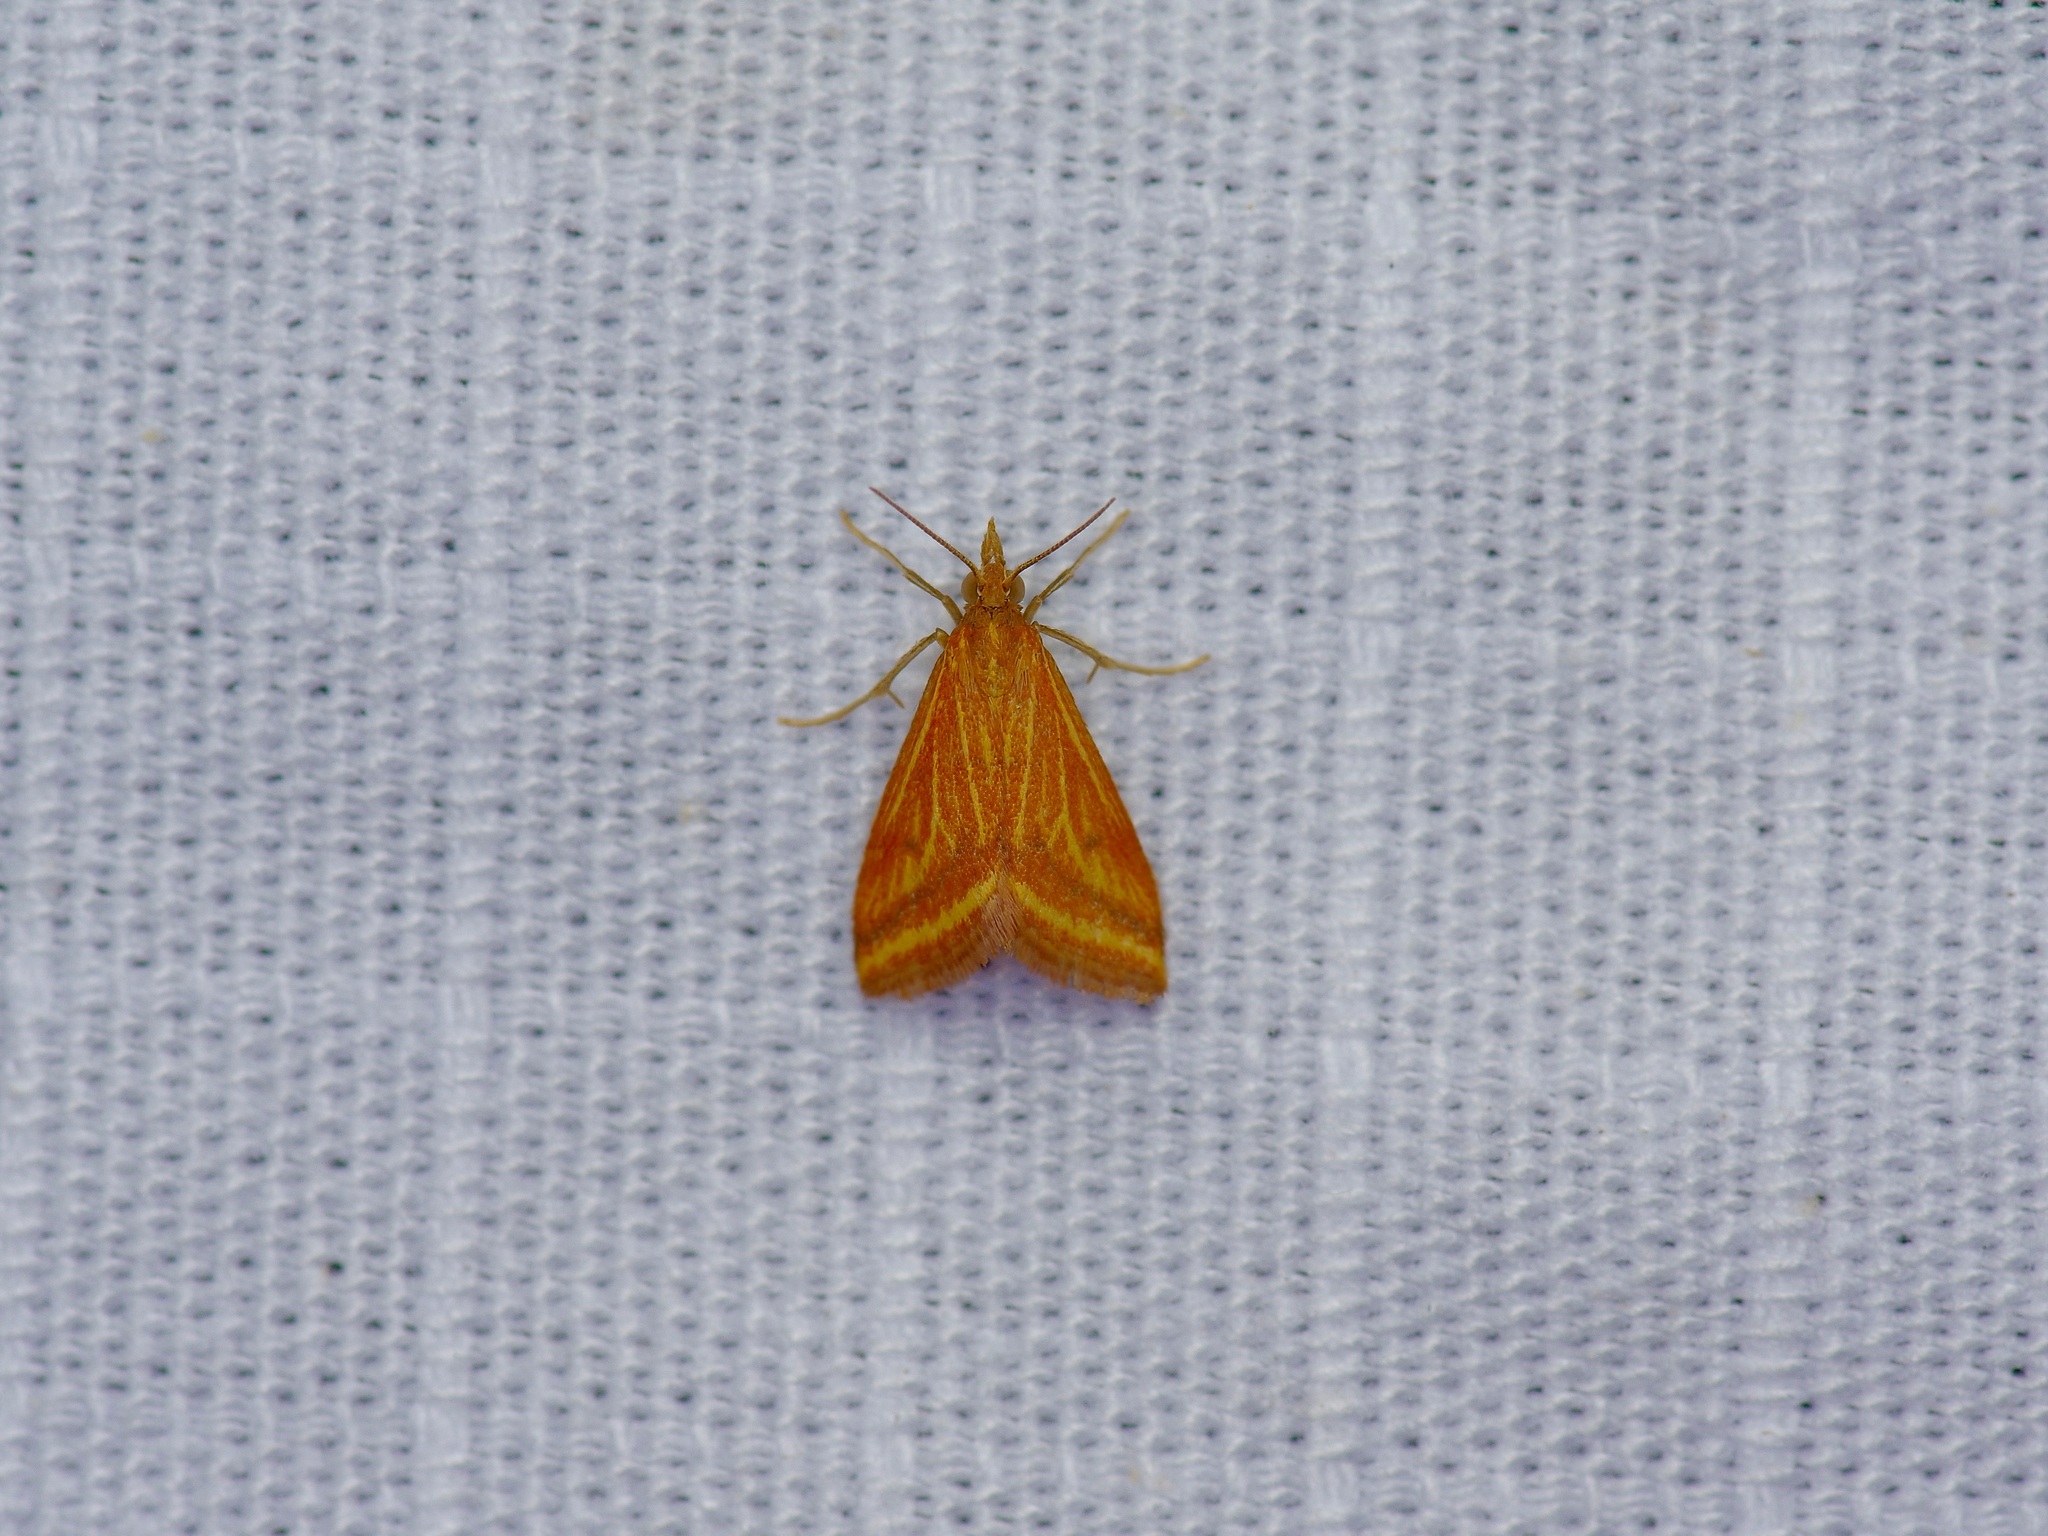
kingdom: Animalia
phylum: Arthropoda
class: Insecta
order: Lepidoptera
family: Crambidae
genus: Microtheoris
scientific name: Microtheoris ophionalis
